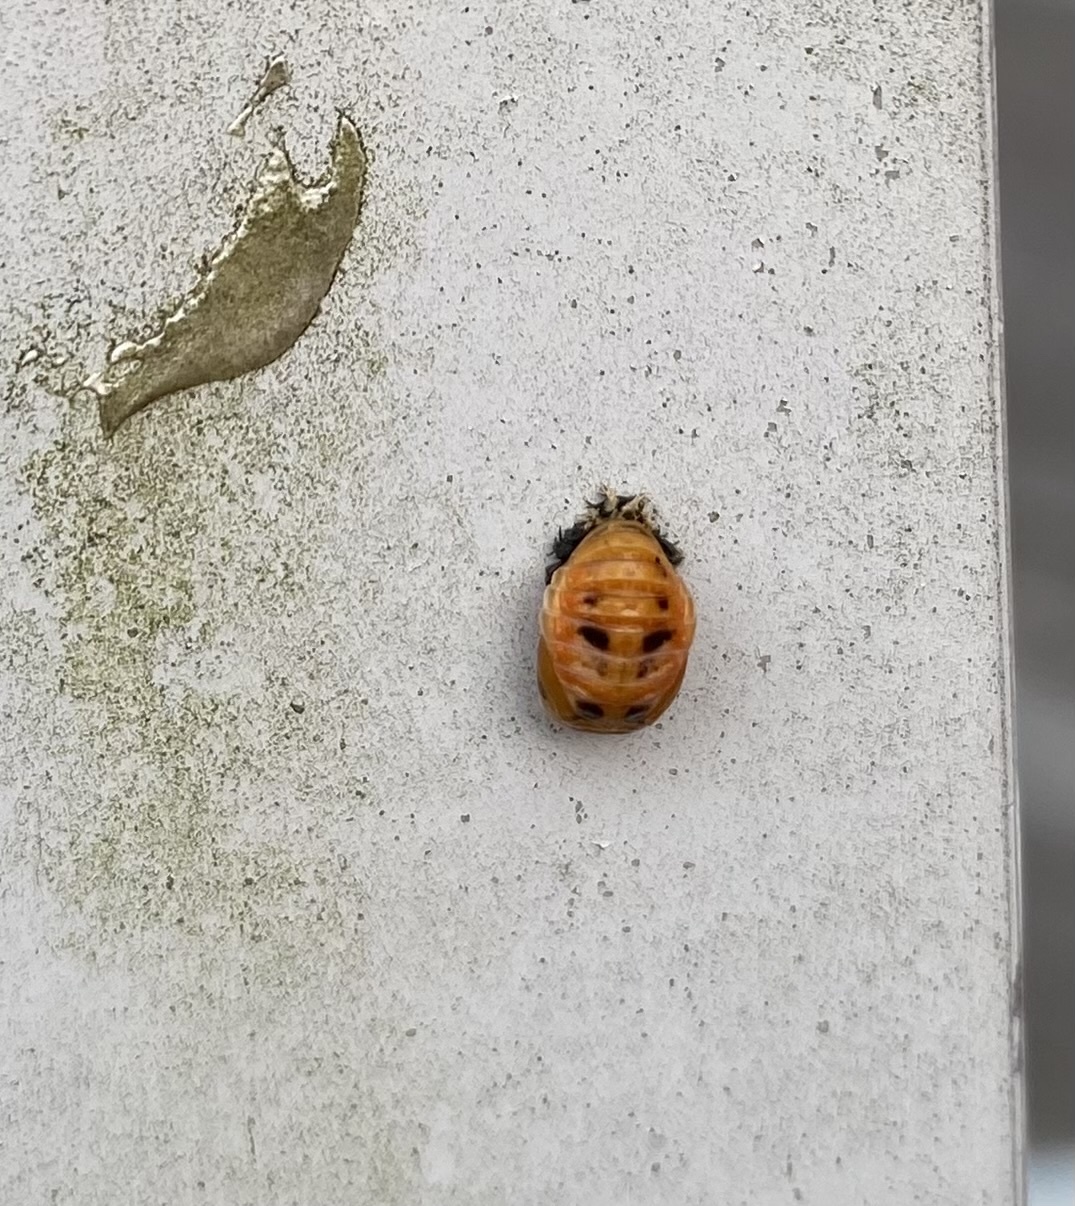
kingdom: Animalia
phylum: Arthropoda
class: Insecta
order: Coleoptera
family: Coccinellidae
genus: Harmonia
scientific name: Harmonia axyridis
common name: Harlequin ladybird
